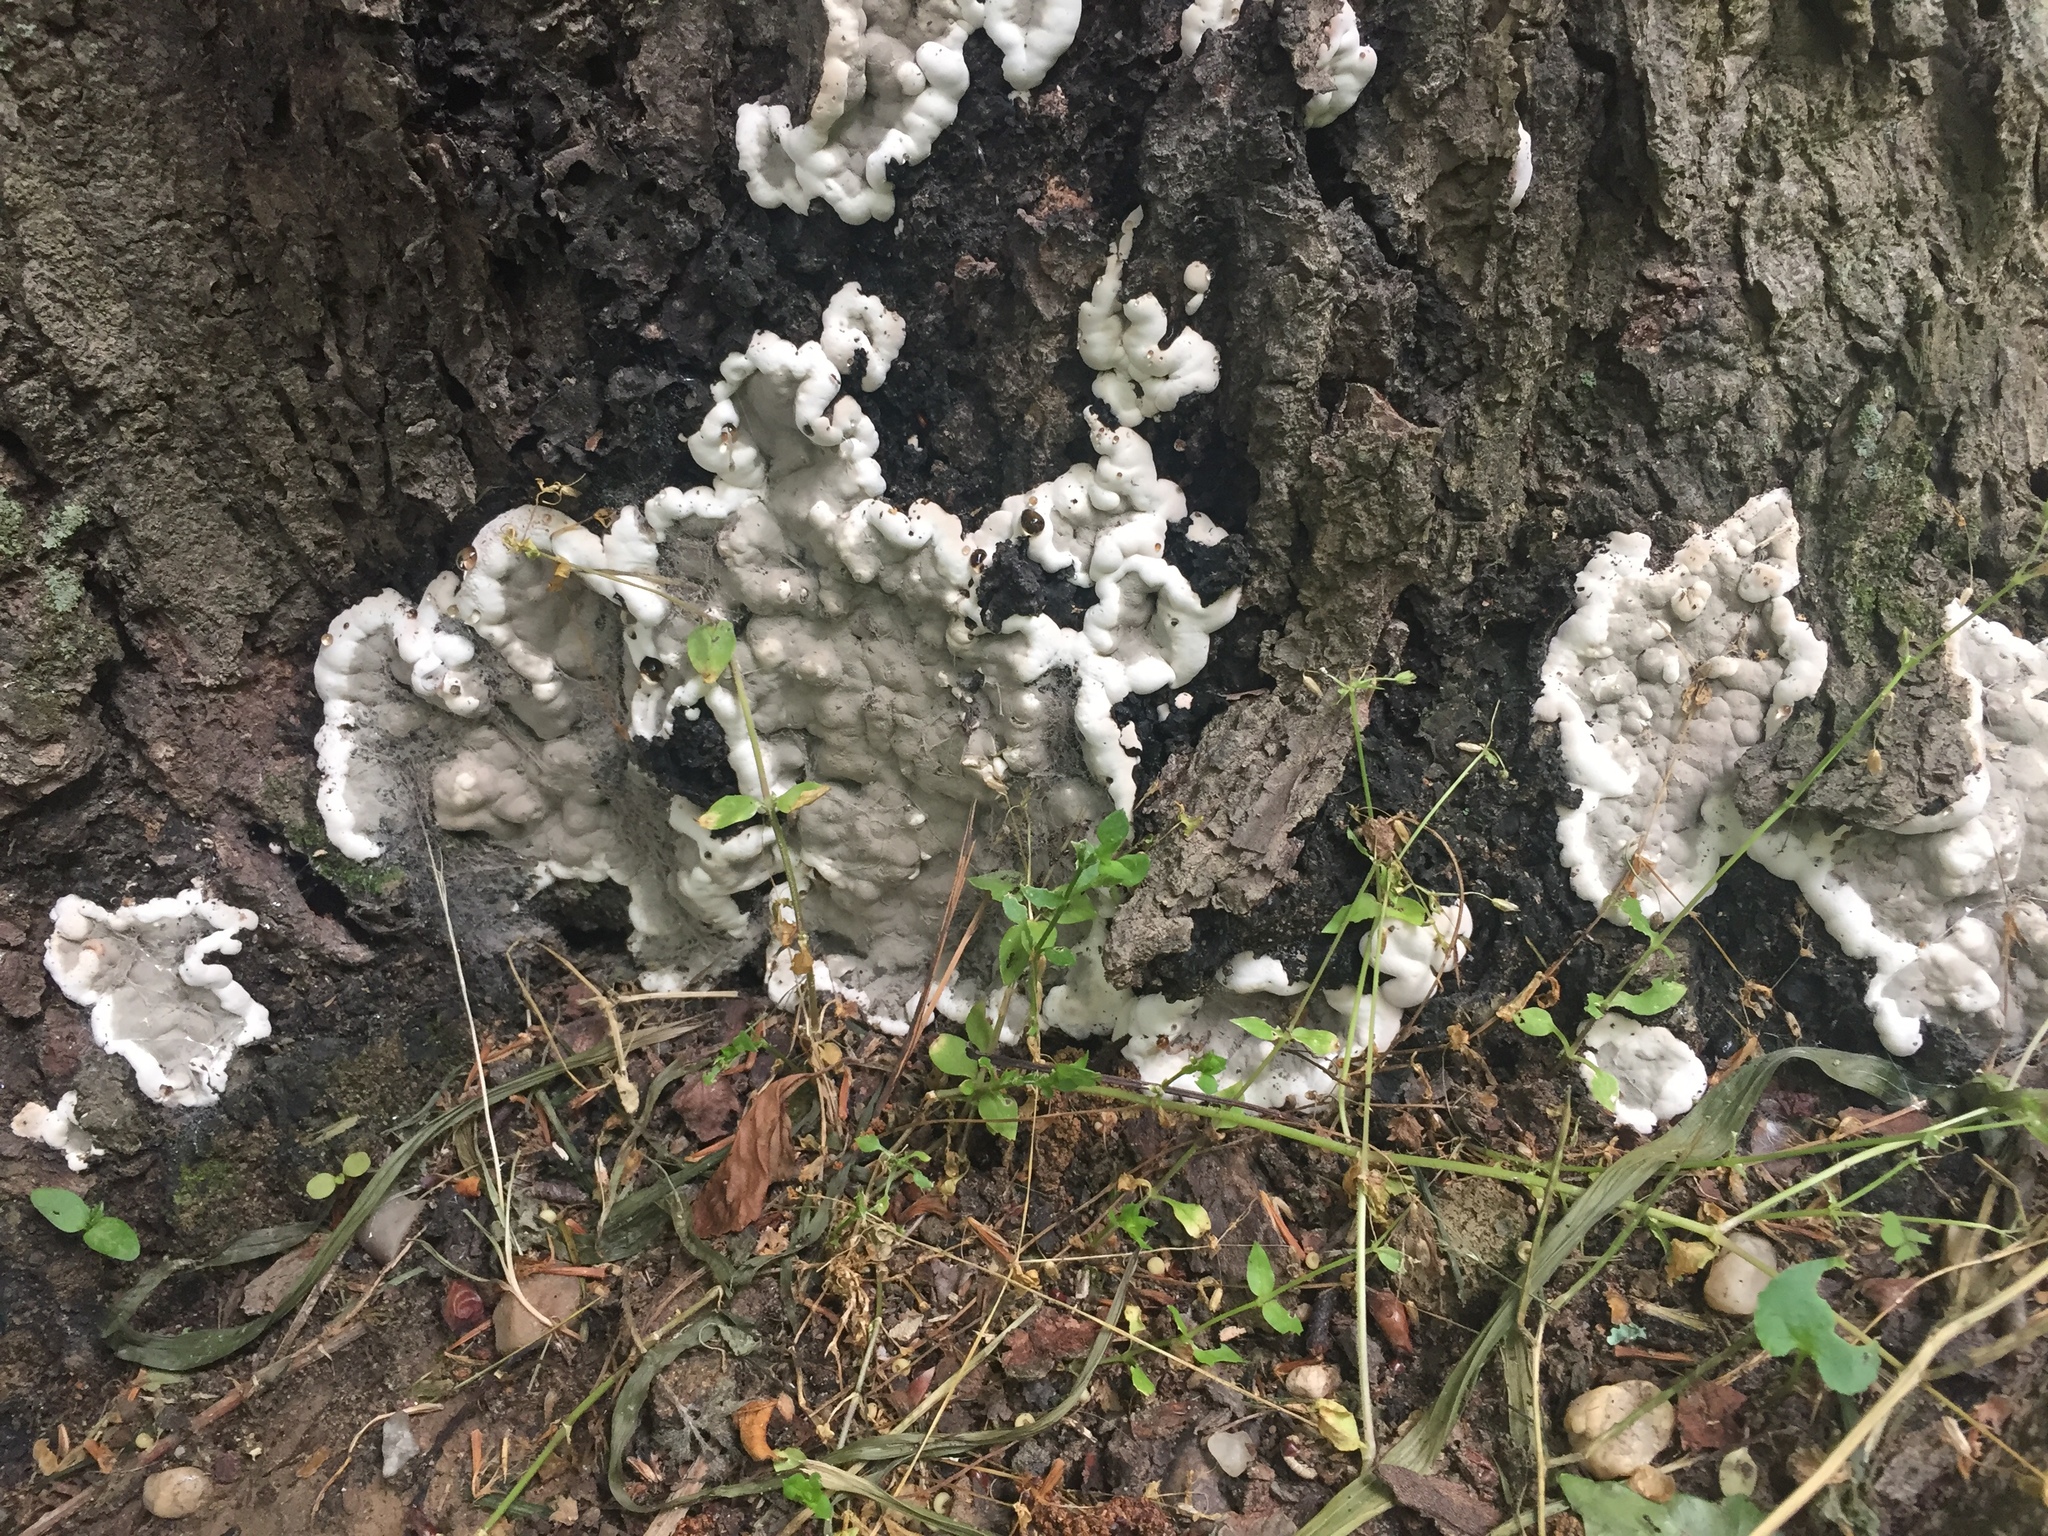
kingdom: Fungi
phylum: Ascomycota
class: Sordariomycetes
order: Xylariales
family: Xylariaceae
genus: Kretzschmaria
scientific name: Kretzschmaria deusta
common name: Brittle cinder
